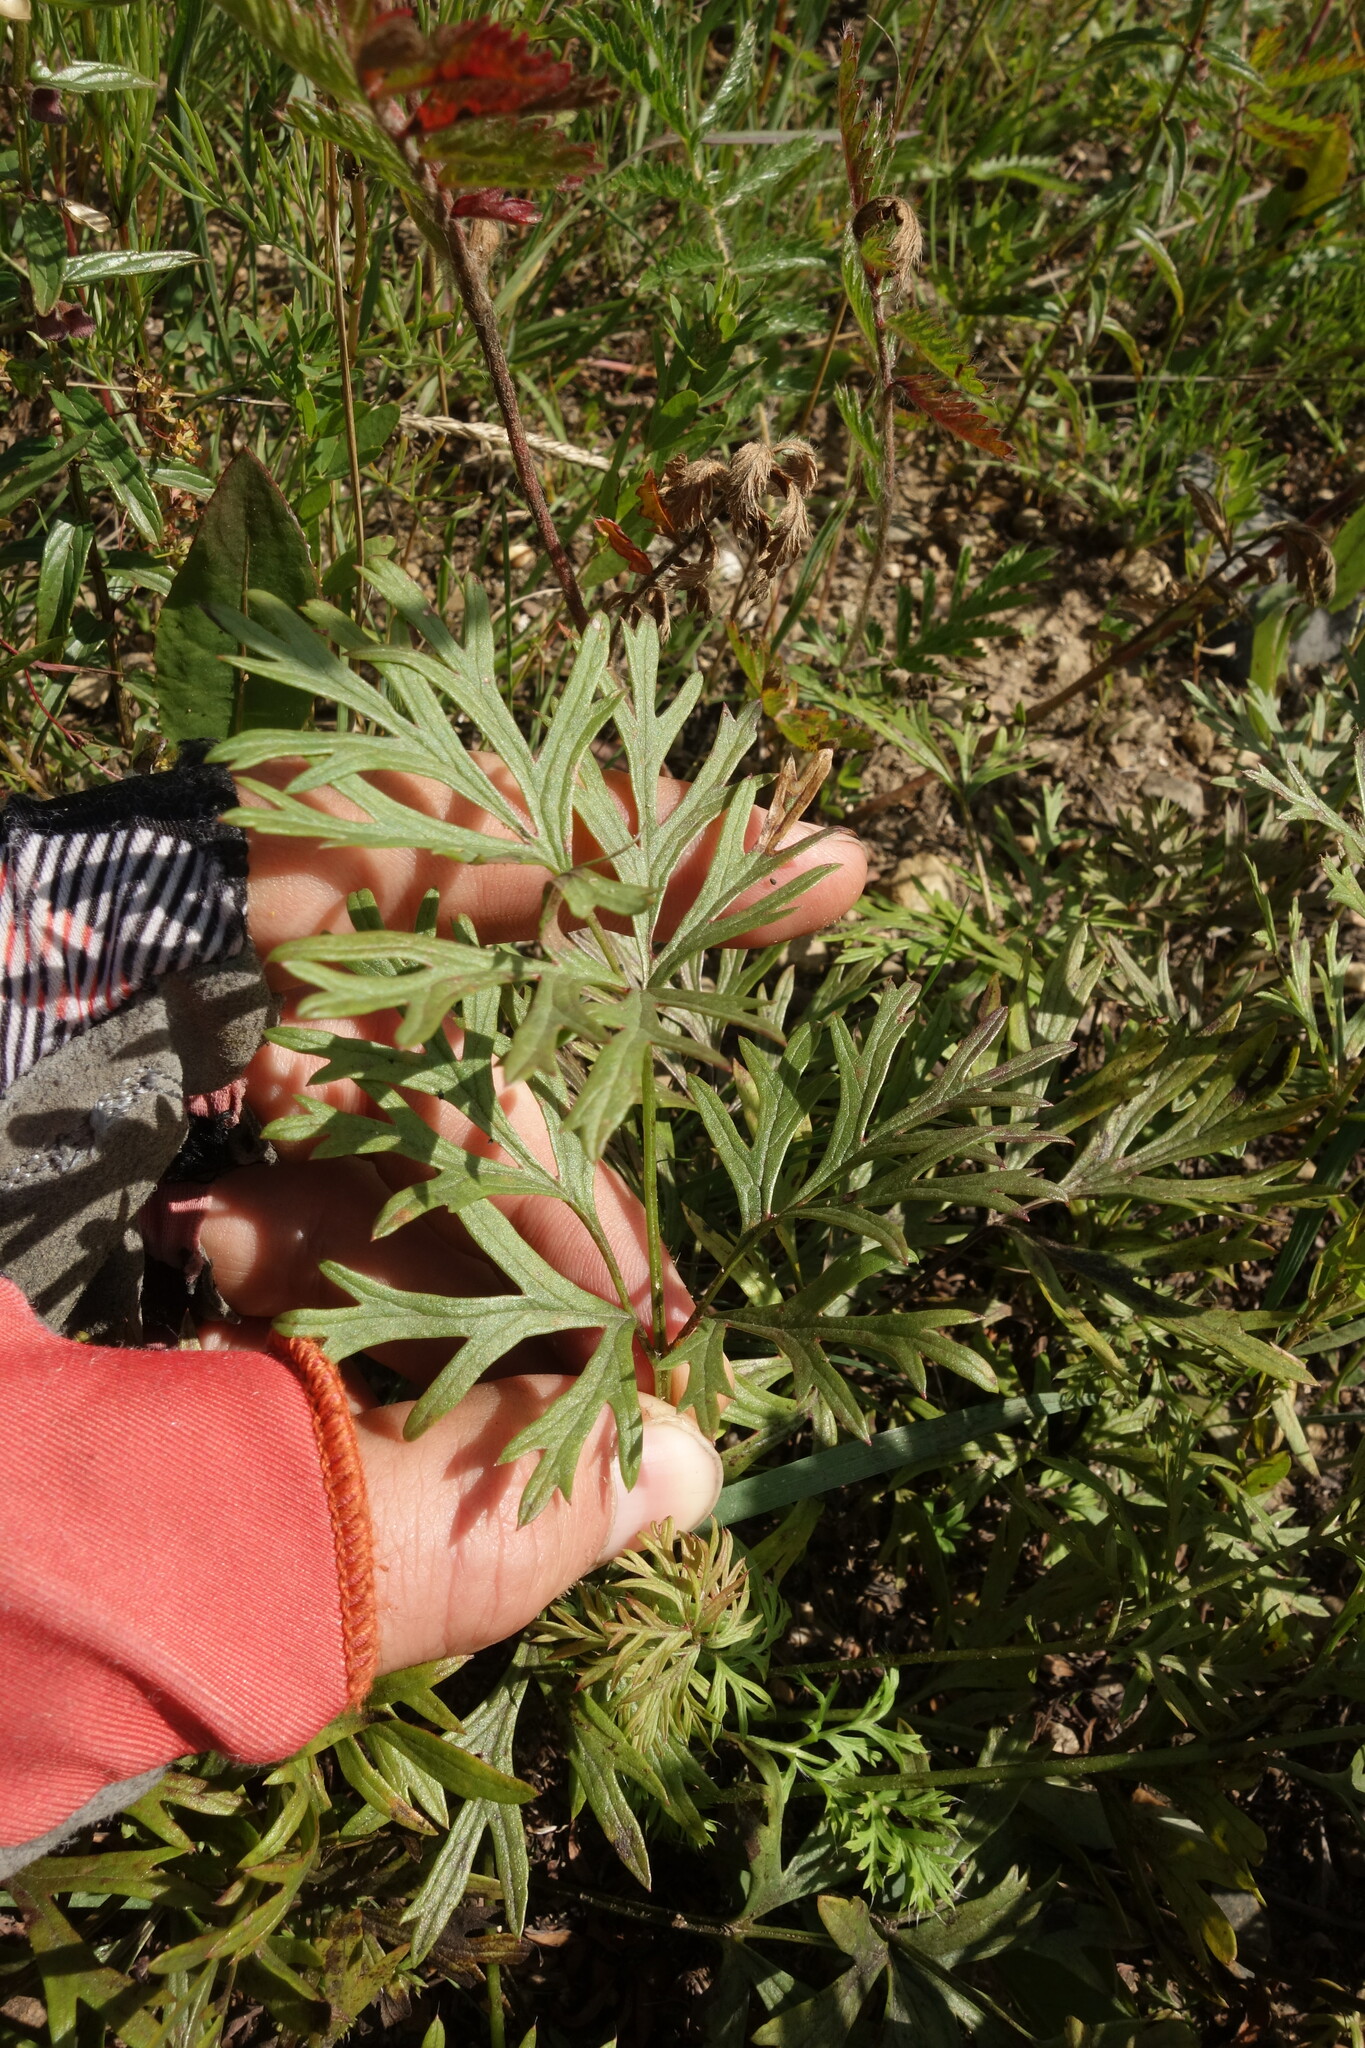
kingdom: Plantae
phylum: Tracheophyta
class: Magnoliopsida
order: Ranunculales
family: Ranunculaceae
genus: Pulsatilla
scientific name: Pulsatilla turczaninovii
